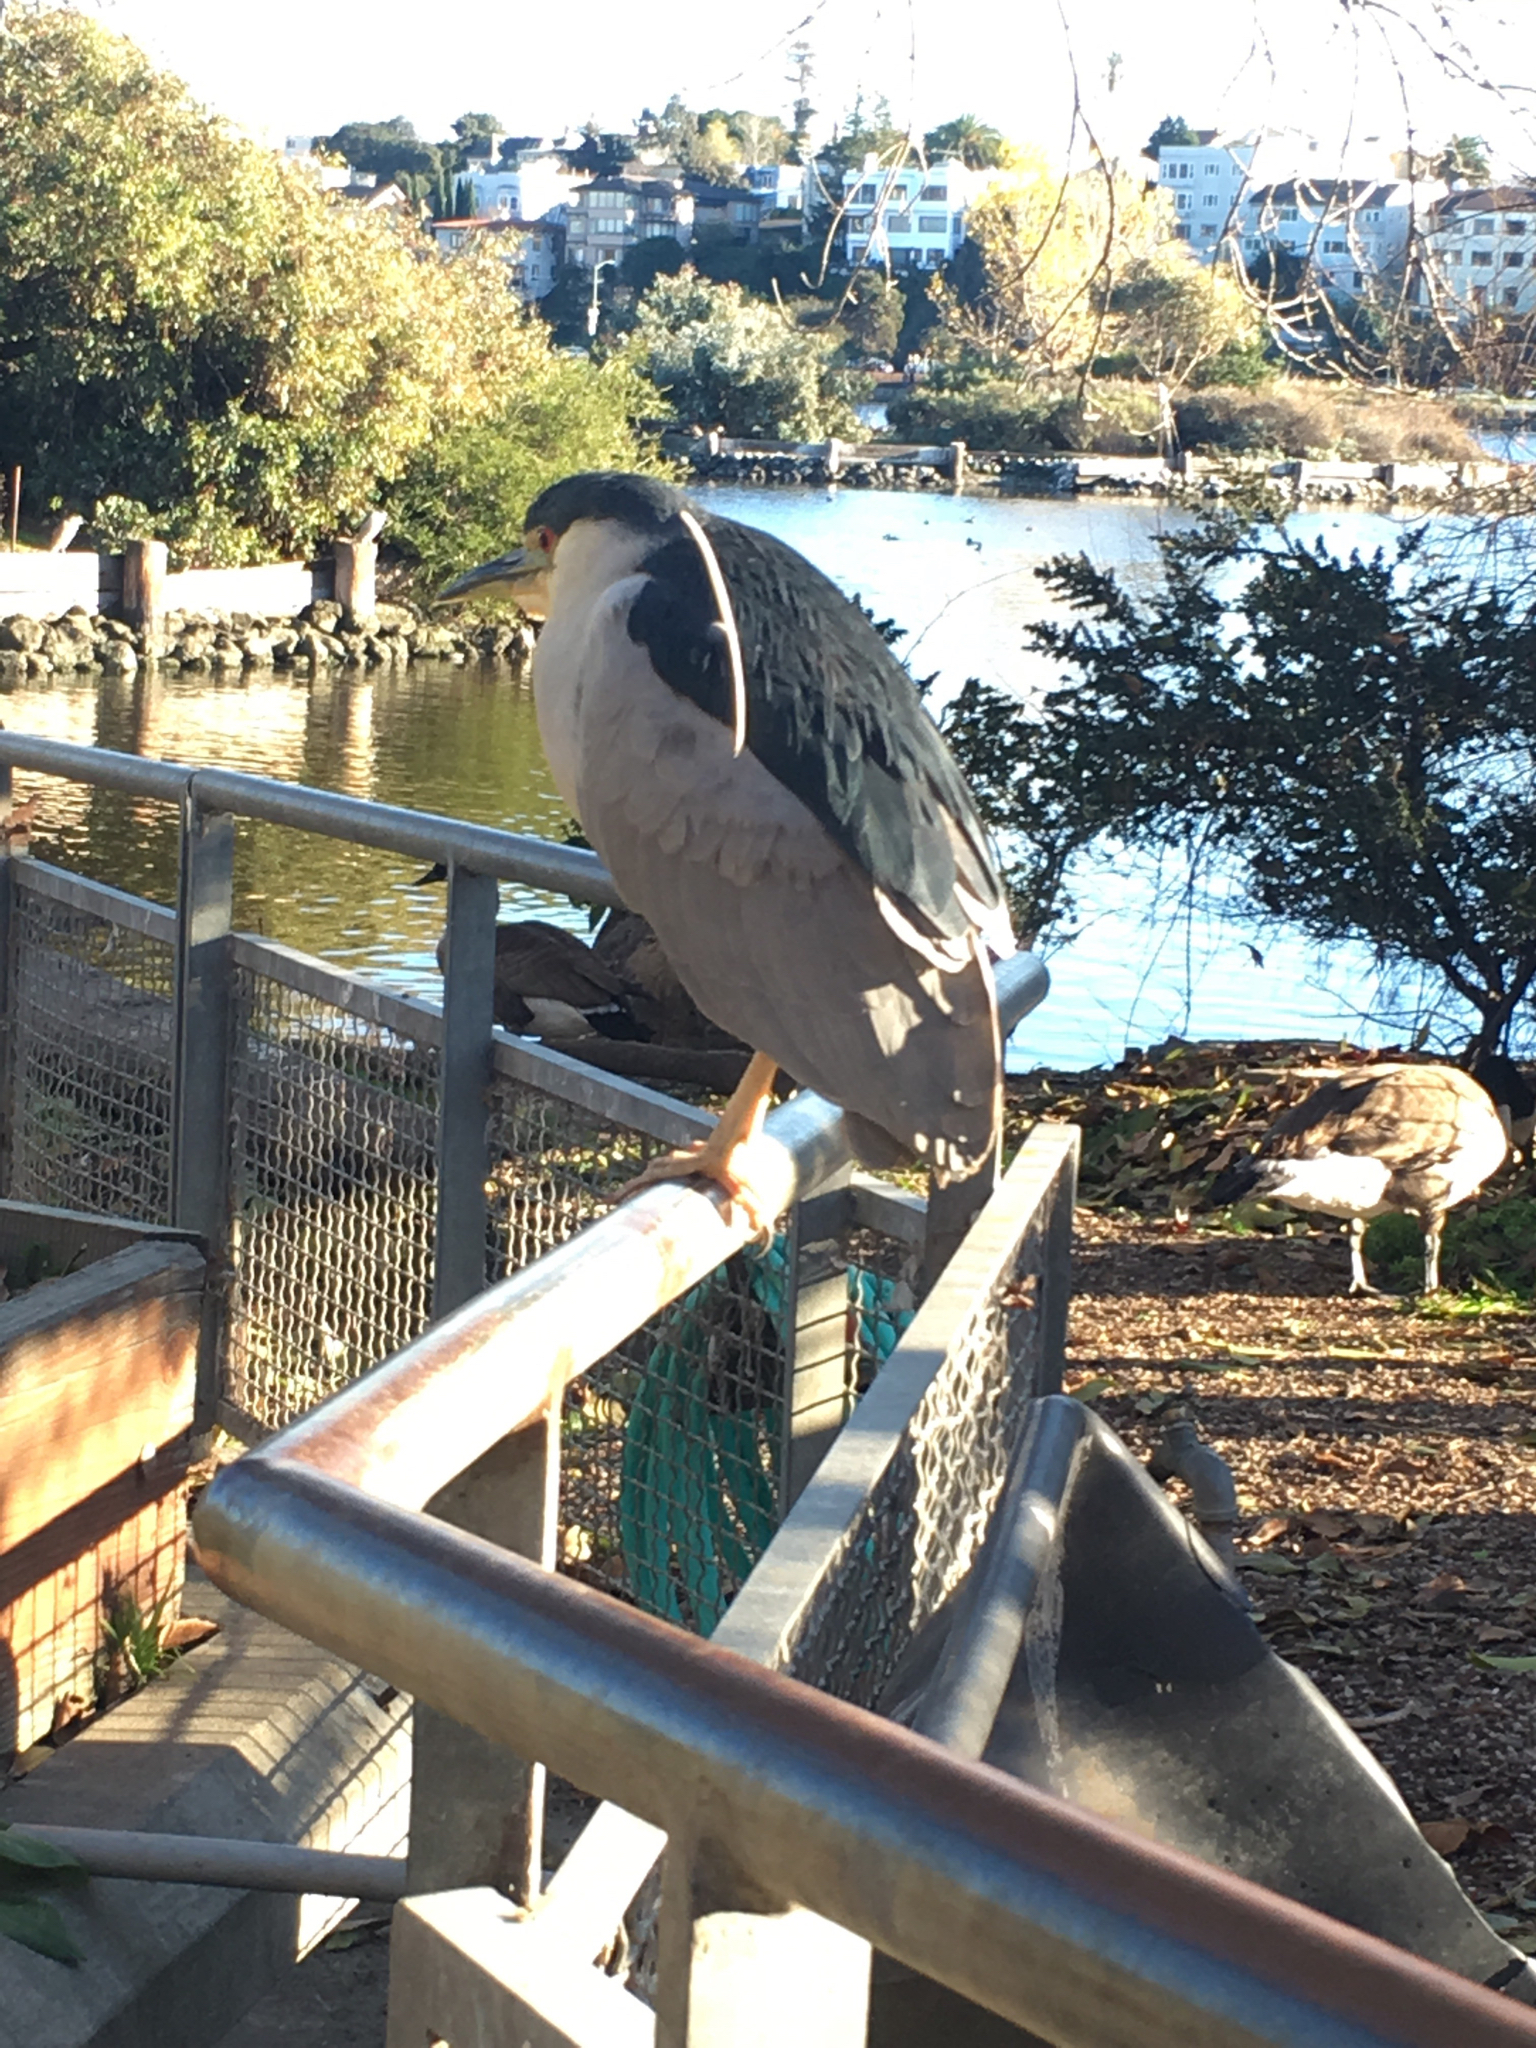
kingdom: Animalia
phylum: Chordata
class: Aves
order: Pelecaniformes
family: Ardeidae
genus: Nycticorax
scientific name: Nycticorax nycticorax
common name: Black-crowned night heron
